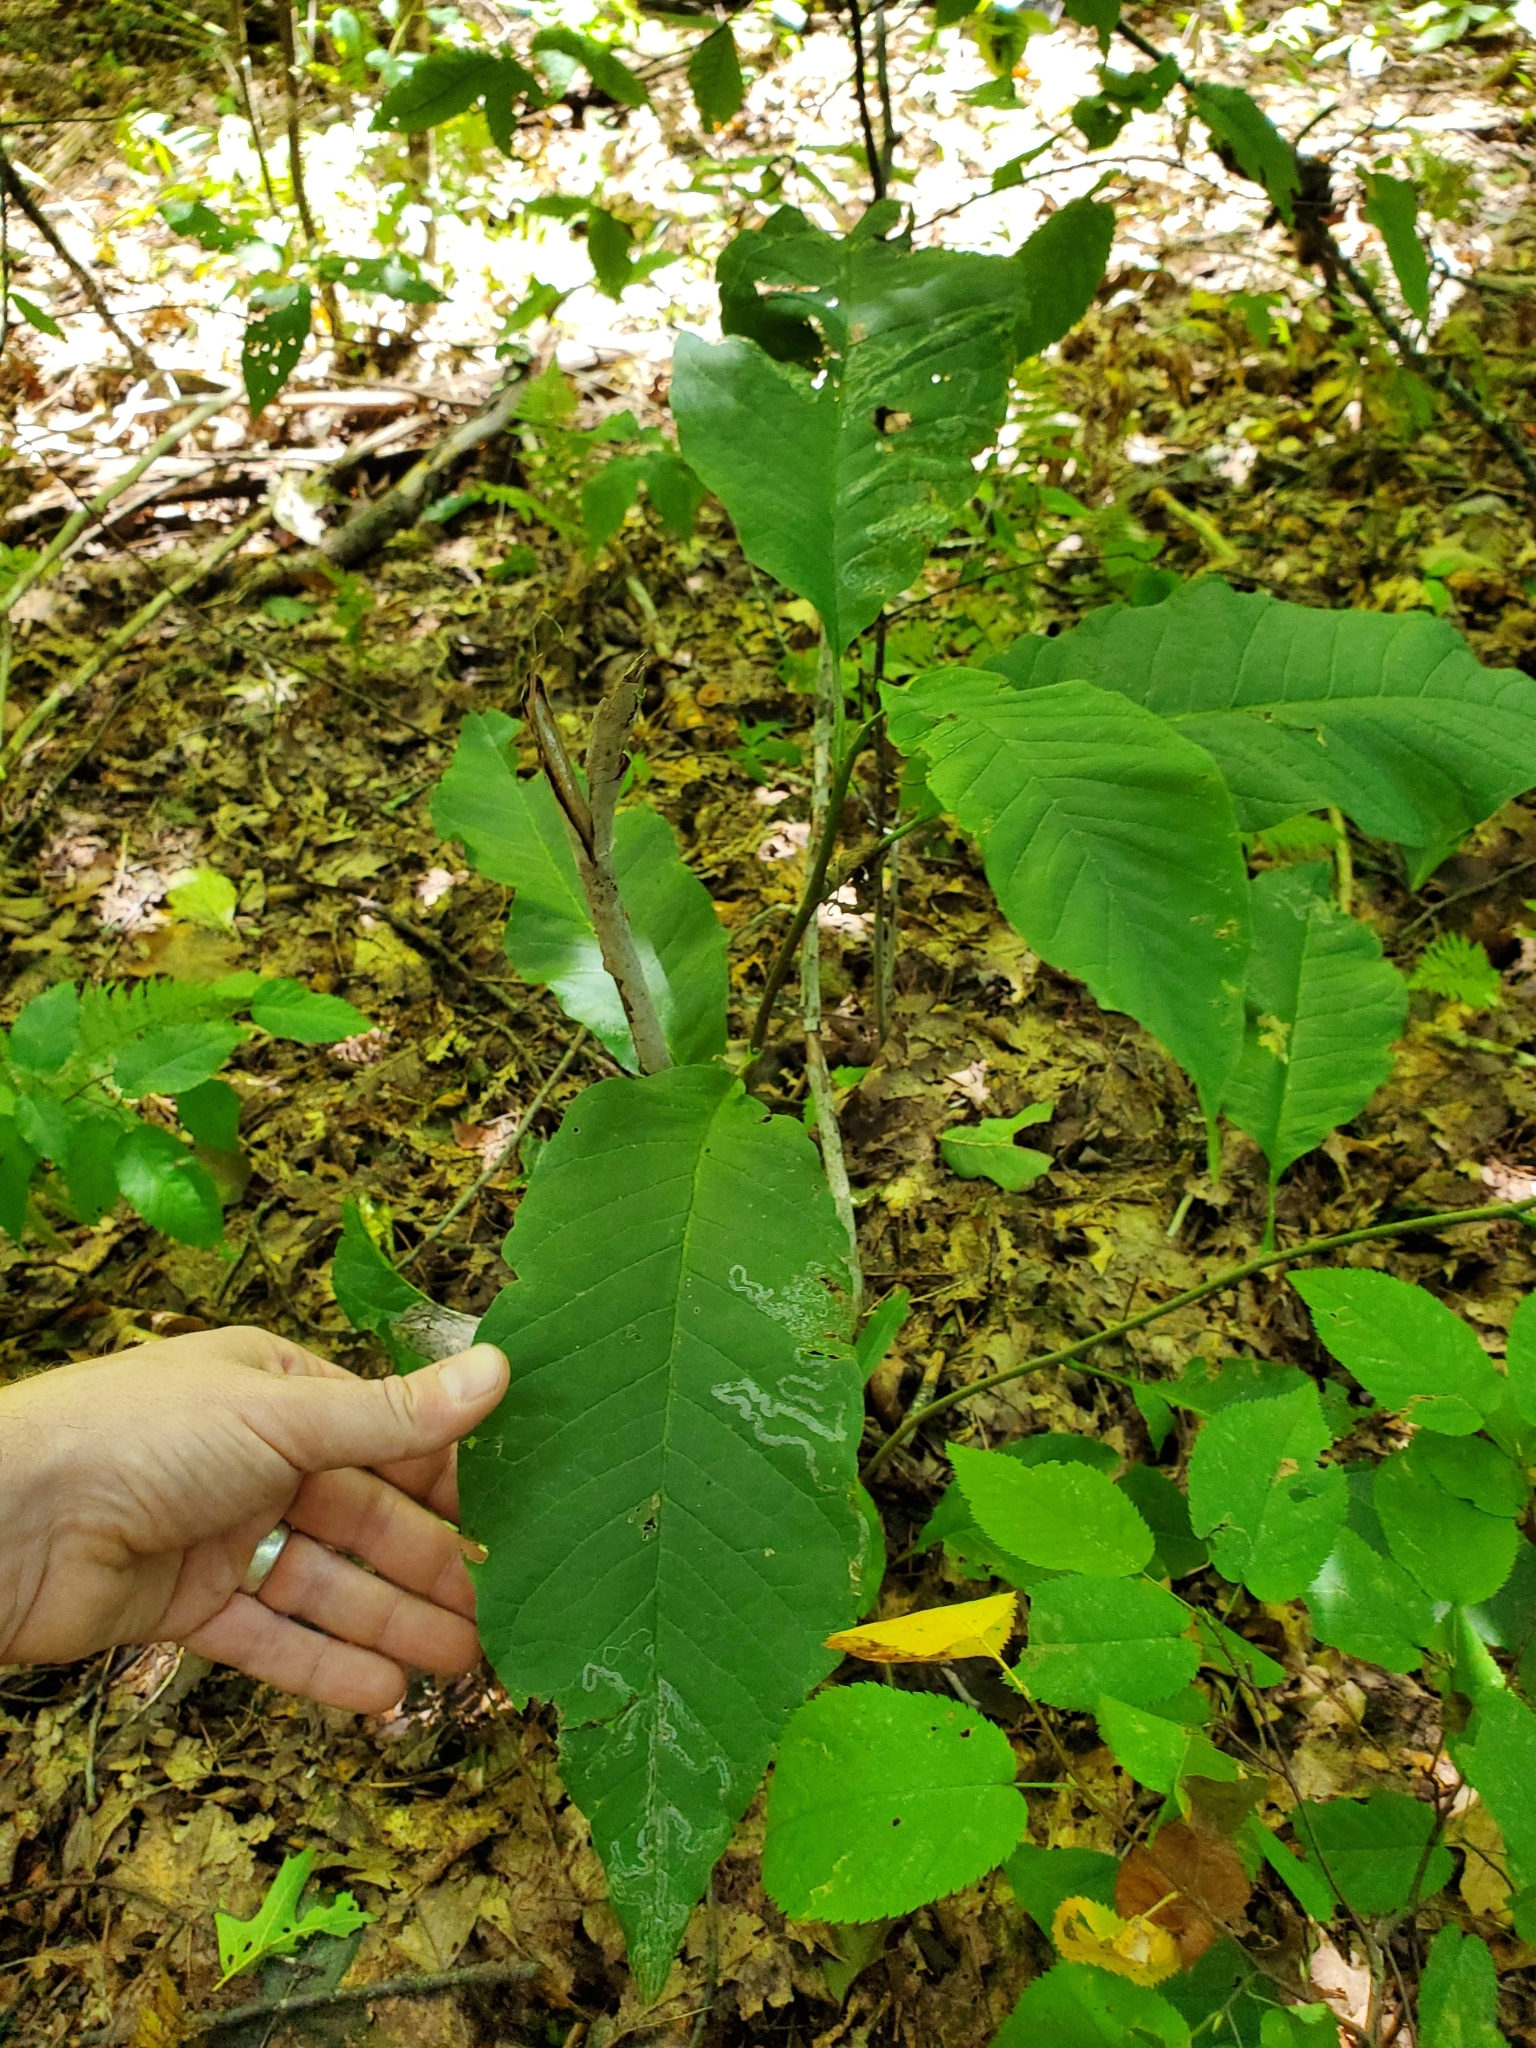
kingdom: Animalia
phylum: Arthropoda
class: Insecta
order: Lepidoptera
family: Gracillariidae
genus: Phyllocnistis
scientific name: Phyllocnistis liriodendronella
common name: Tulip tree leaf miner
